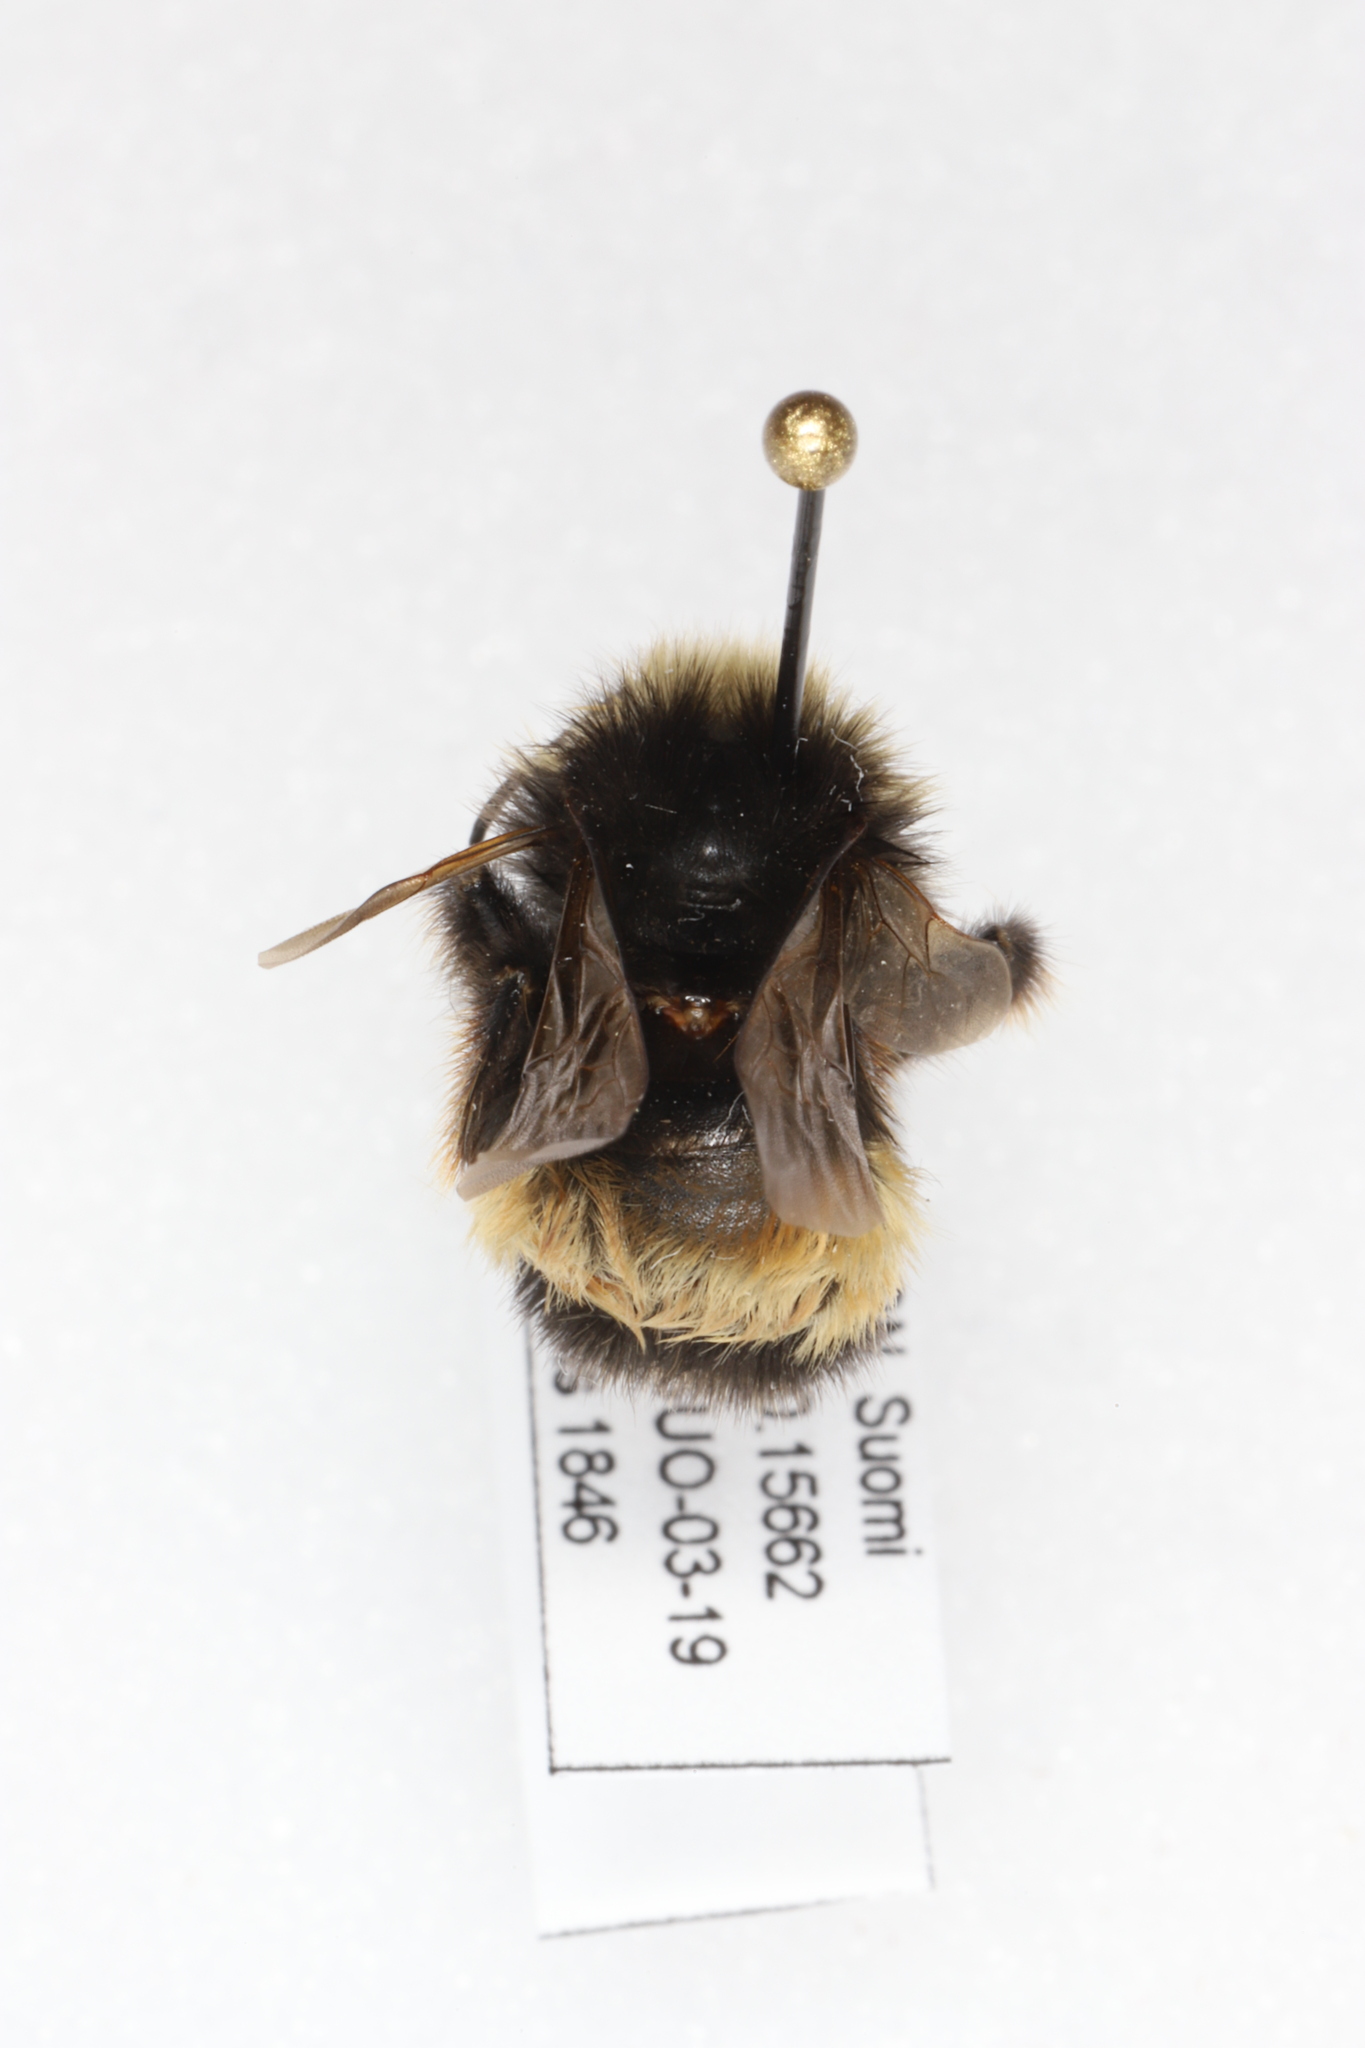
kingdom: Animalia
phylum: Arthropoda
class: Insecta
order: Hymenoptera
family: Apidae
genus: Bombus
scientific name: Bombus terricola
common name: Yellow-banded bumble bee
